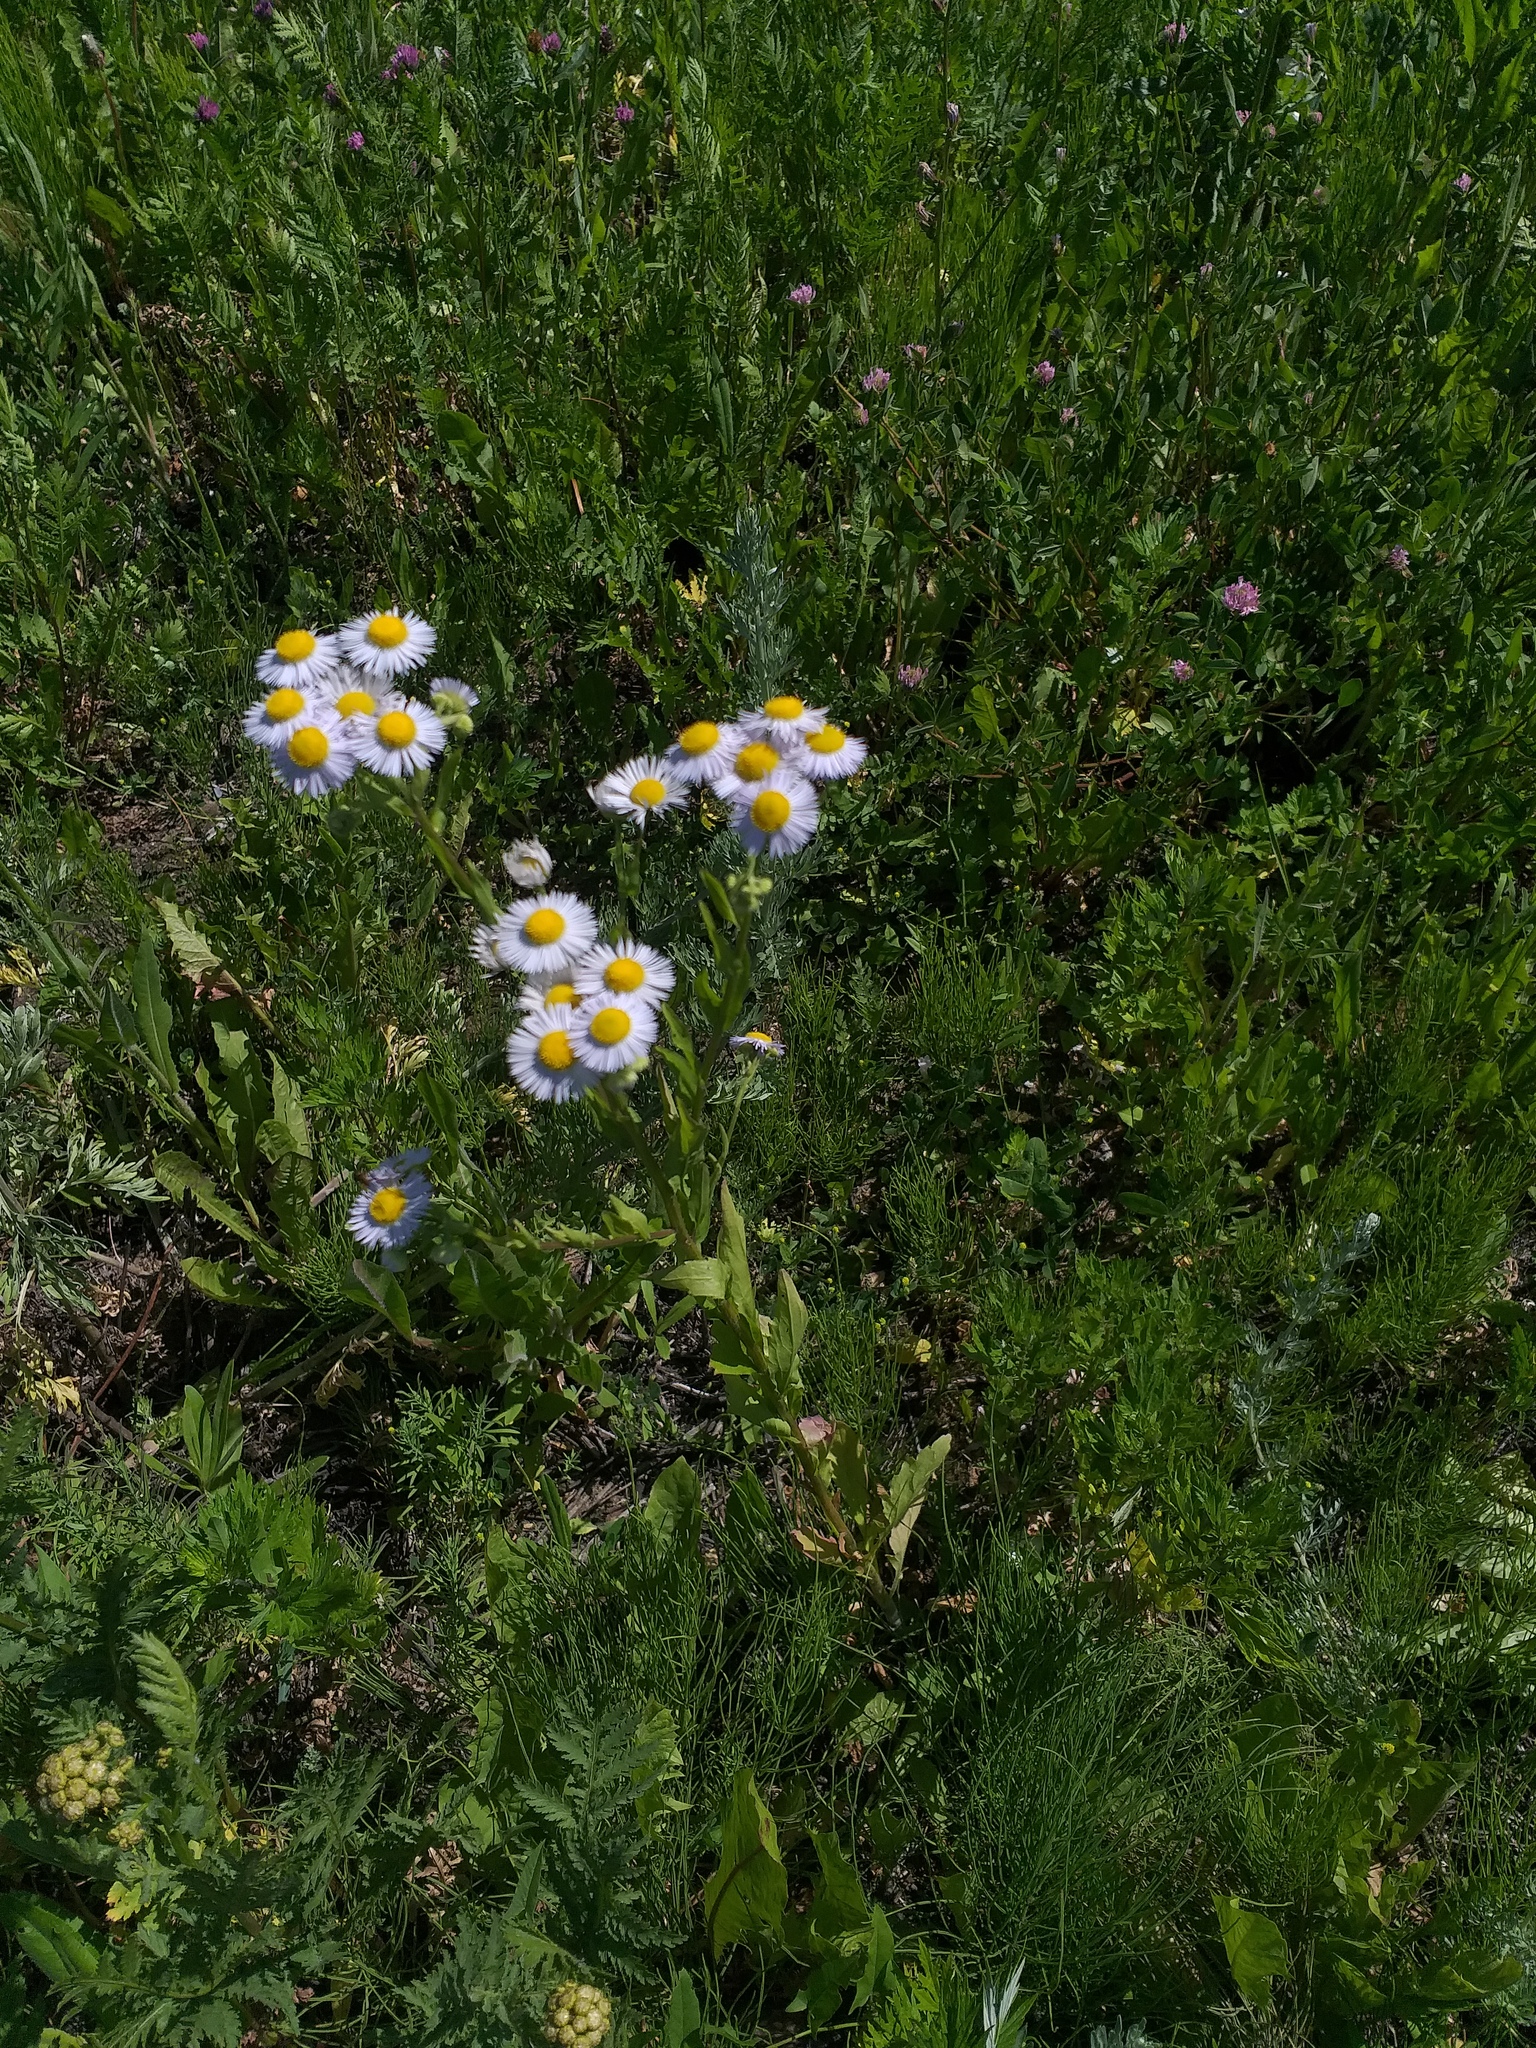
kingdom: Plantae
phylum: Tracheophyta
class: Magnoliopsida
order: Asterales
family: Asteraceae
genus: Erigeron
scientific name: Erigeron annuus
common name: Tall fleabane
